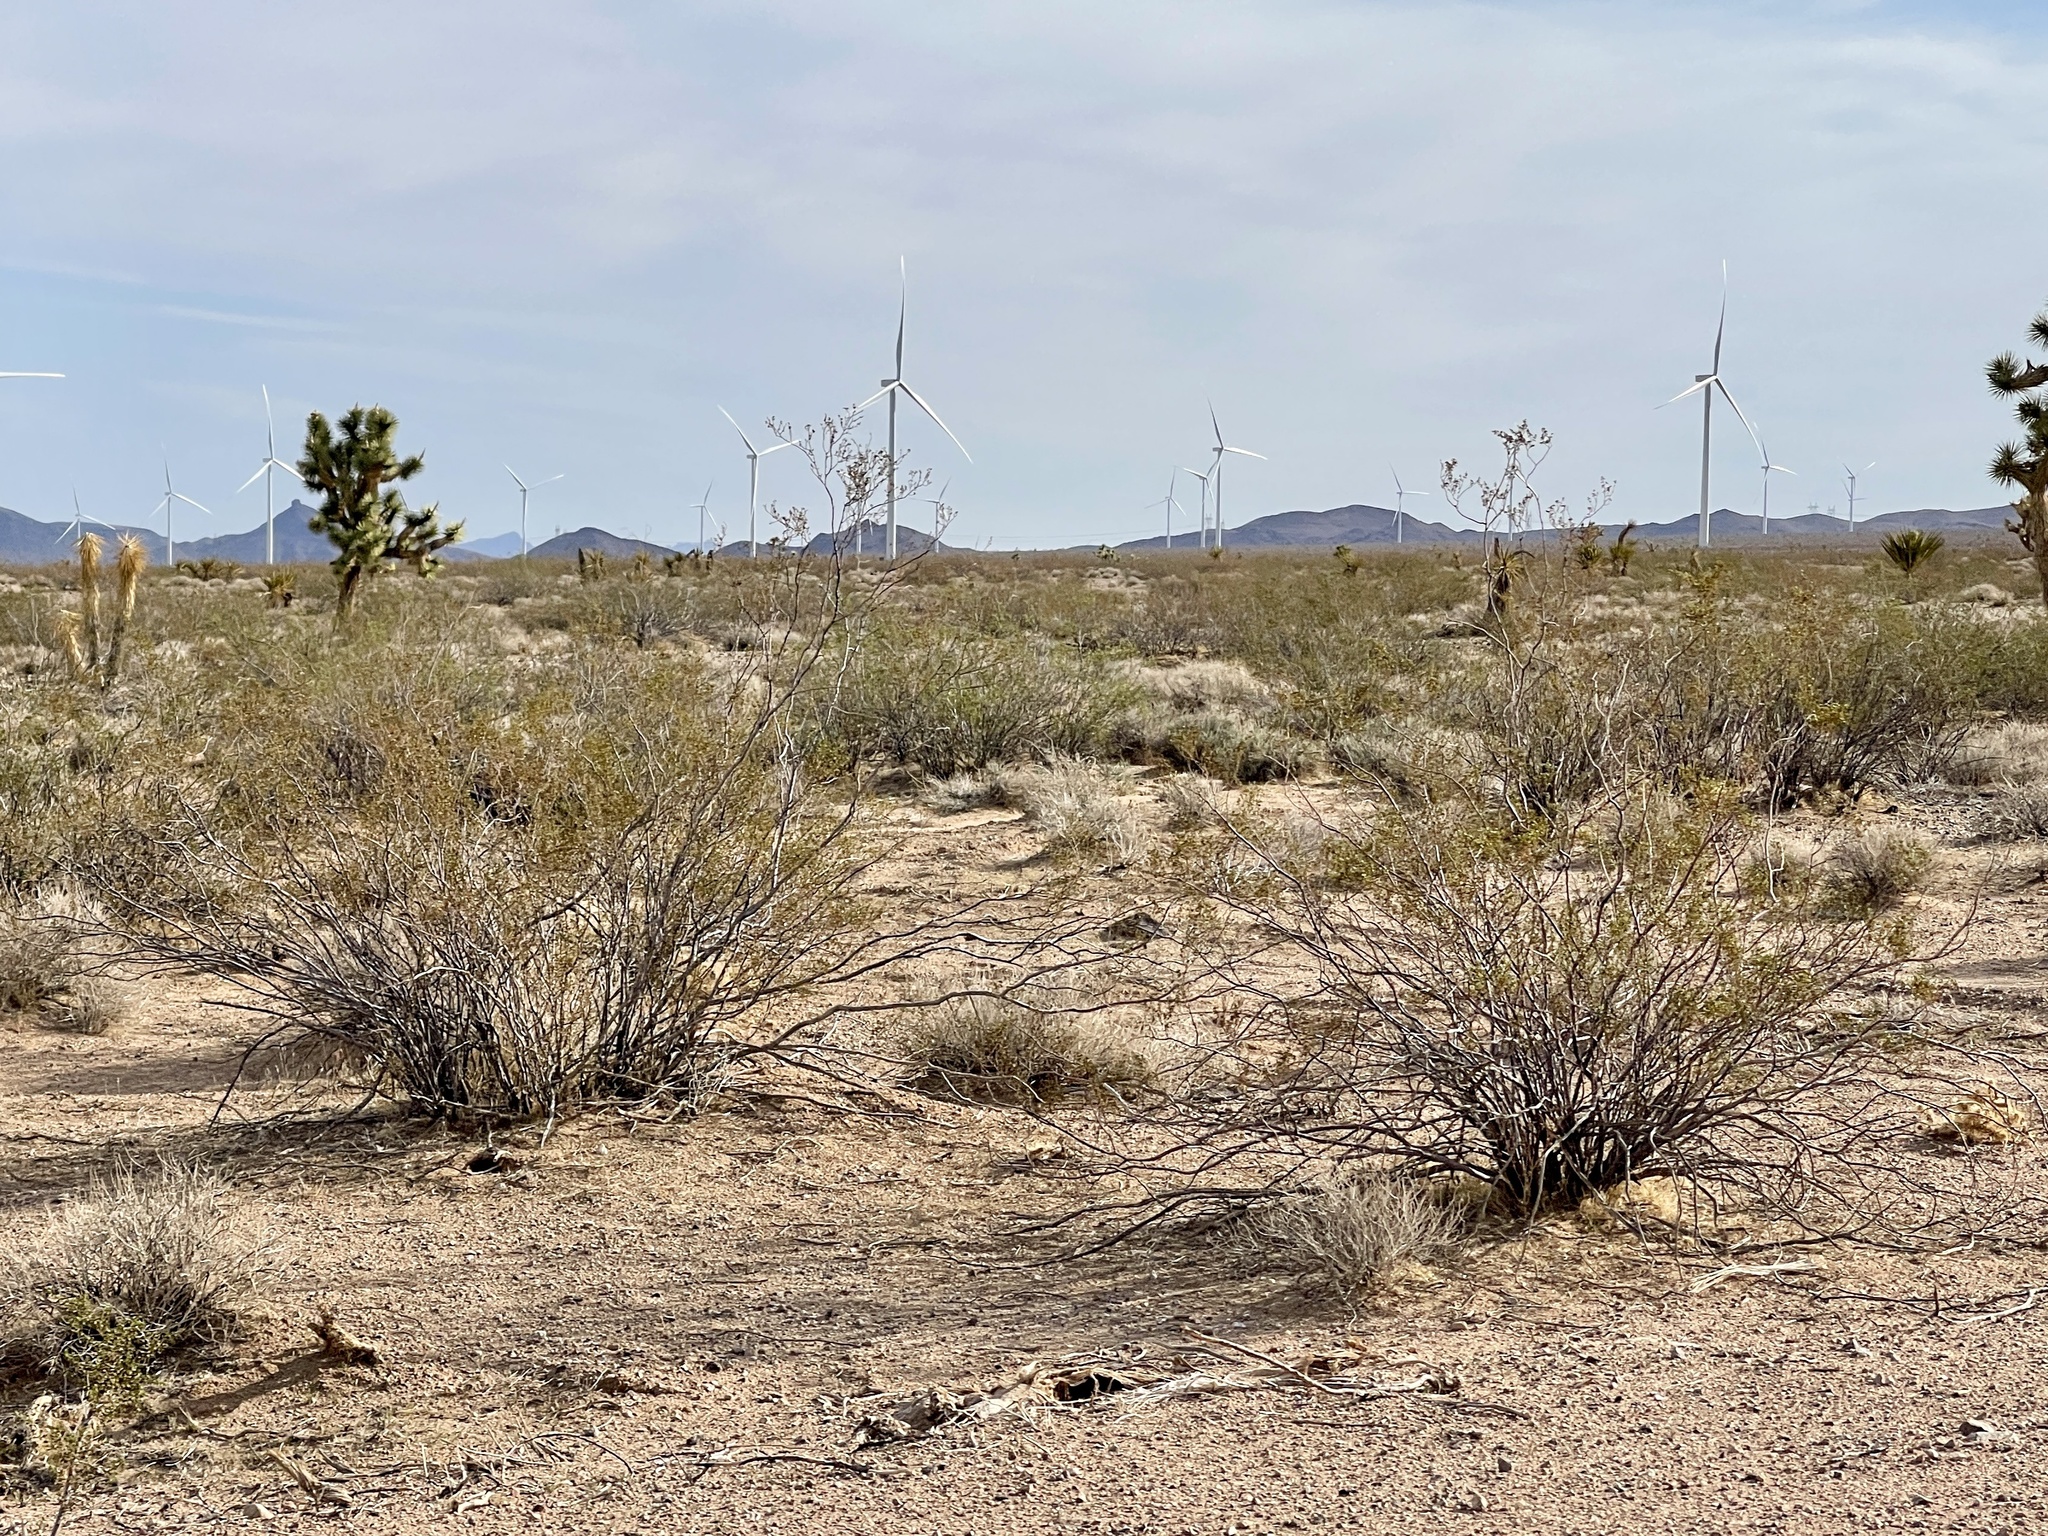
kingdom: Plantae
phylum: Tracheophyta
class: Magnoliopsida
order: Zygophyllales
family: Zygophyllaceae
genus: Larrea
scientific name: Larrea tridentata
